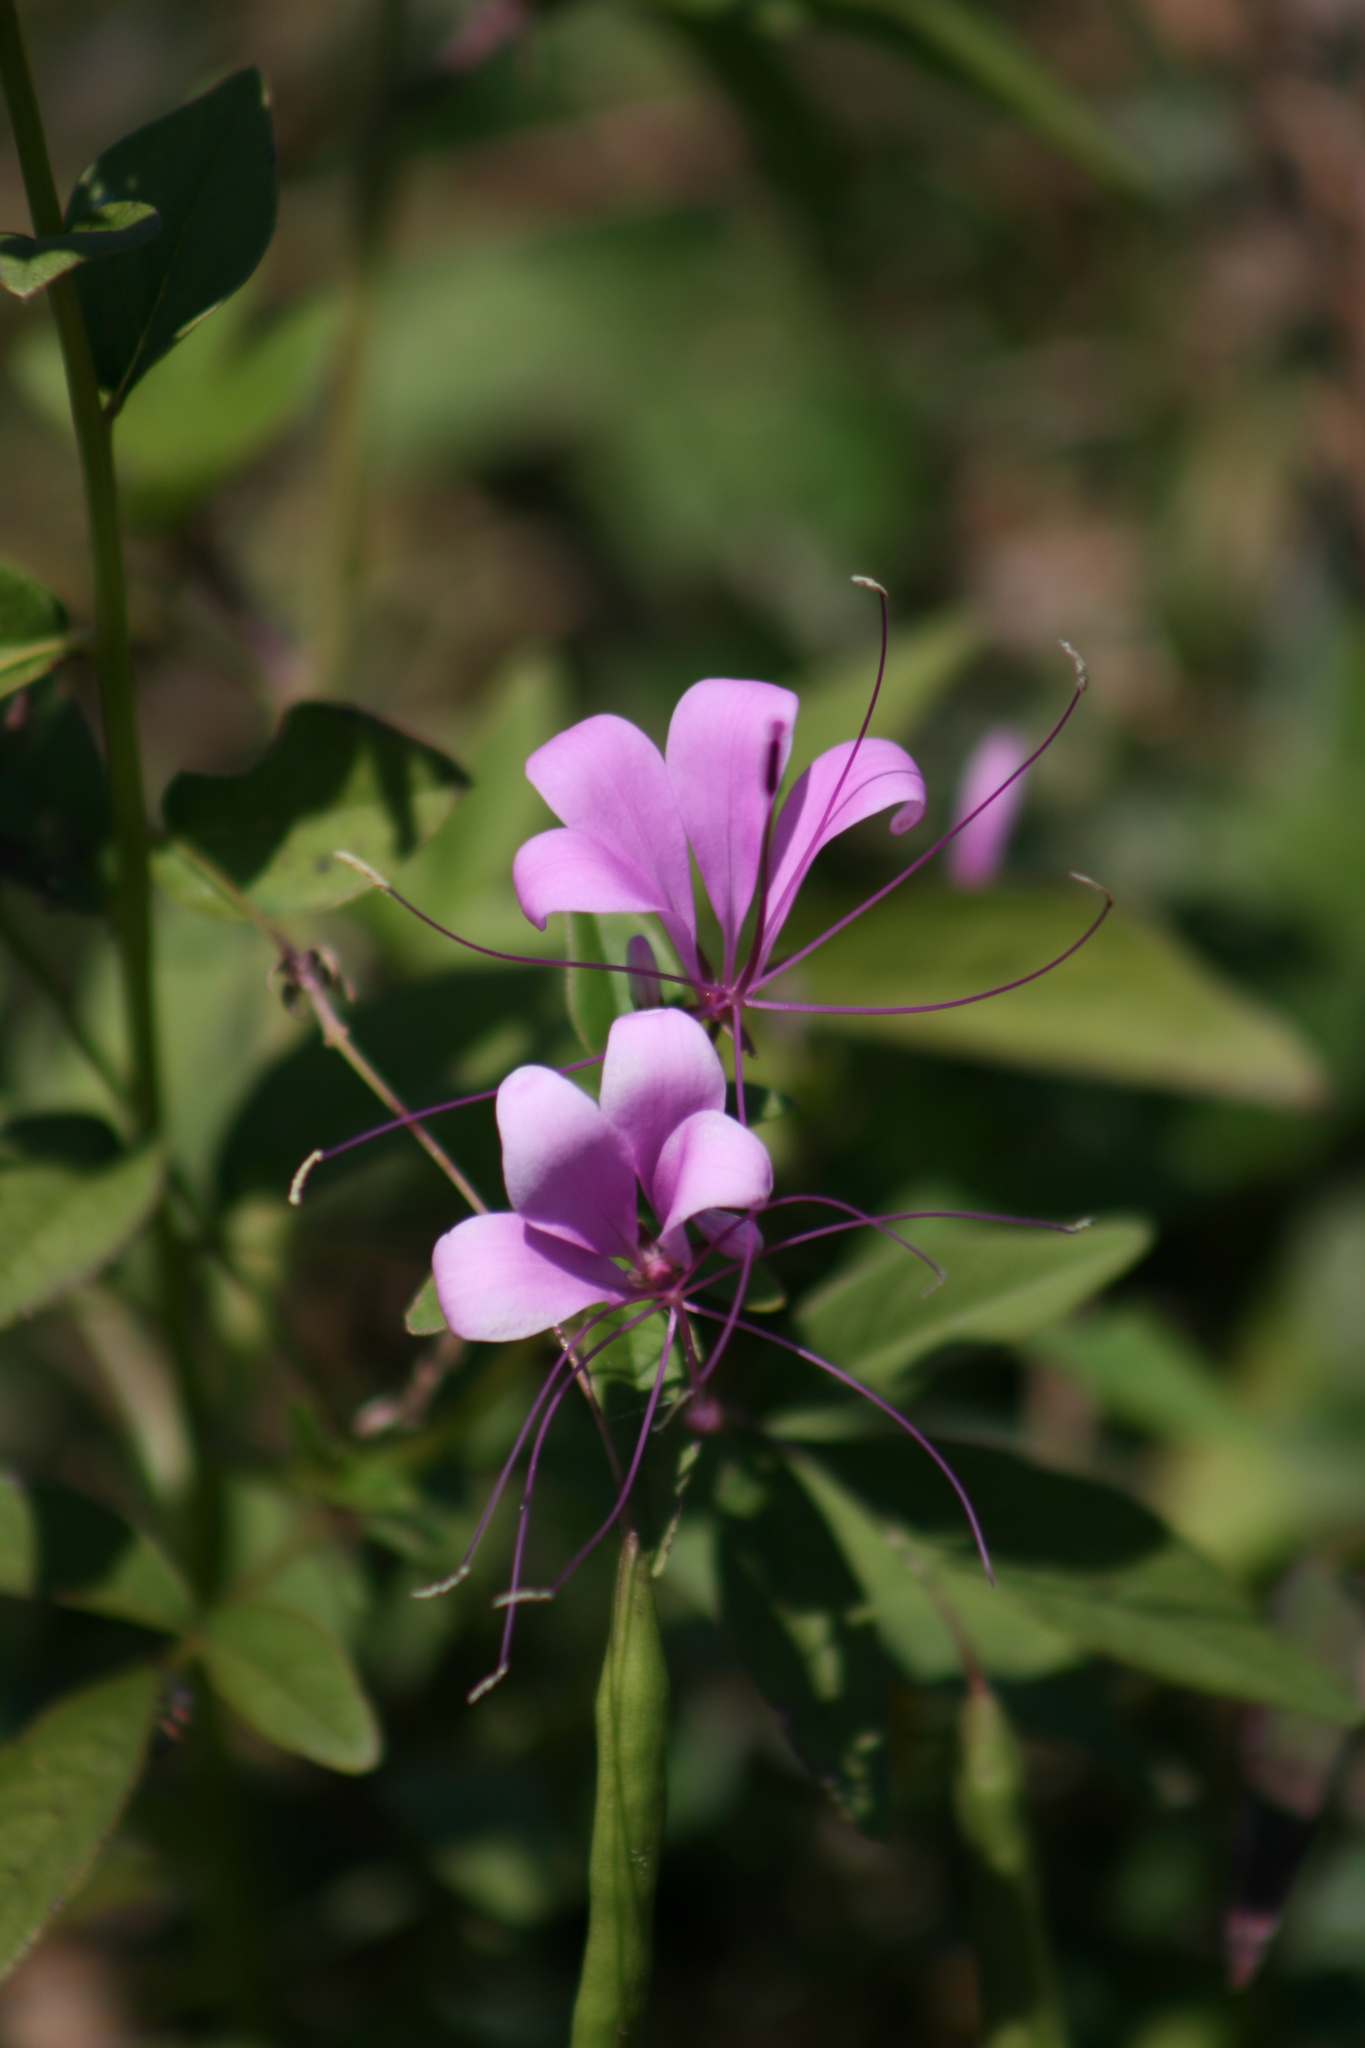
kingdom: Plantae
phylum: Tracheophyta
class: Magnoliopsida
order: Brassicales
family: Cleomaceae
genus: Cleoserrata
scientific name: Cleoserrata speciosa
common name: Volantines preciosos
